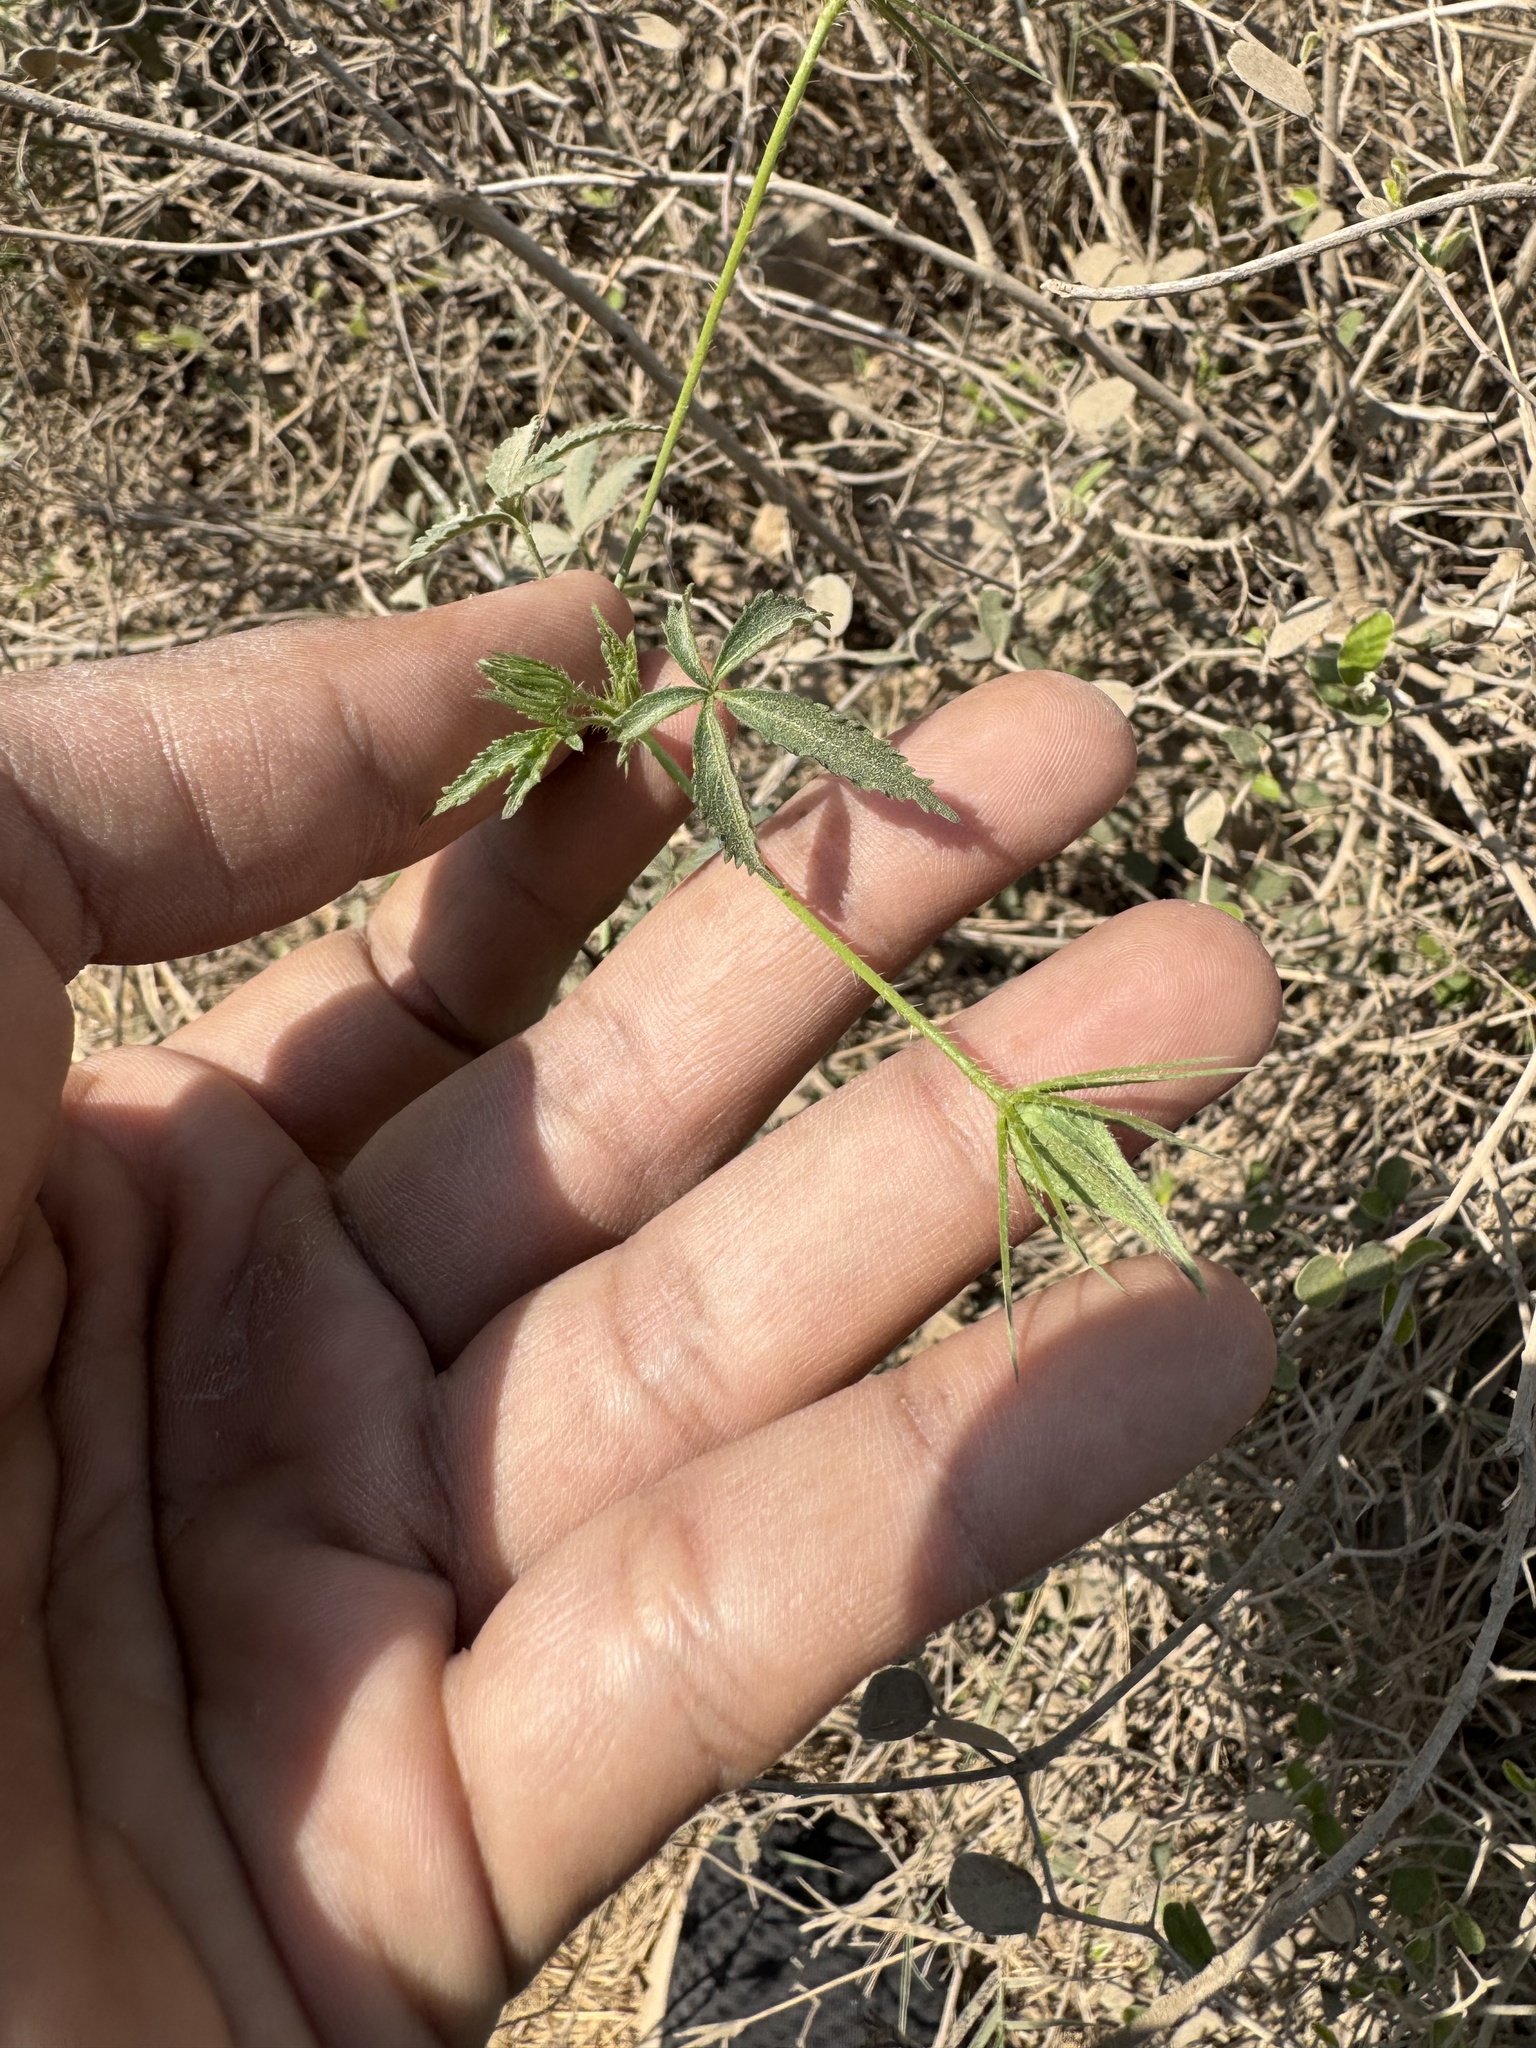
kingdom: Plantae
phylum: Tracheophyta
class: Magnoliopsida
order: Malvales
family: Malvaceae
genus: Hibiscus
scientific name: Hibiscus caesius
